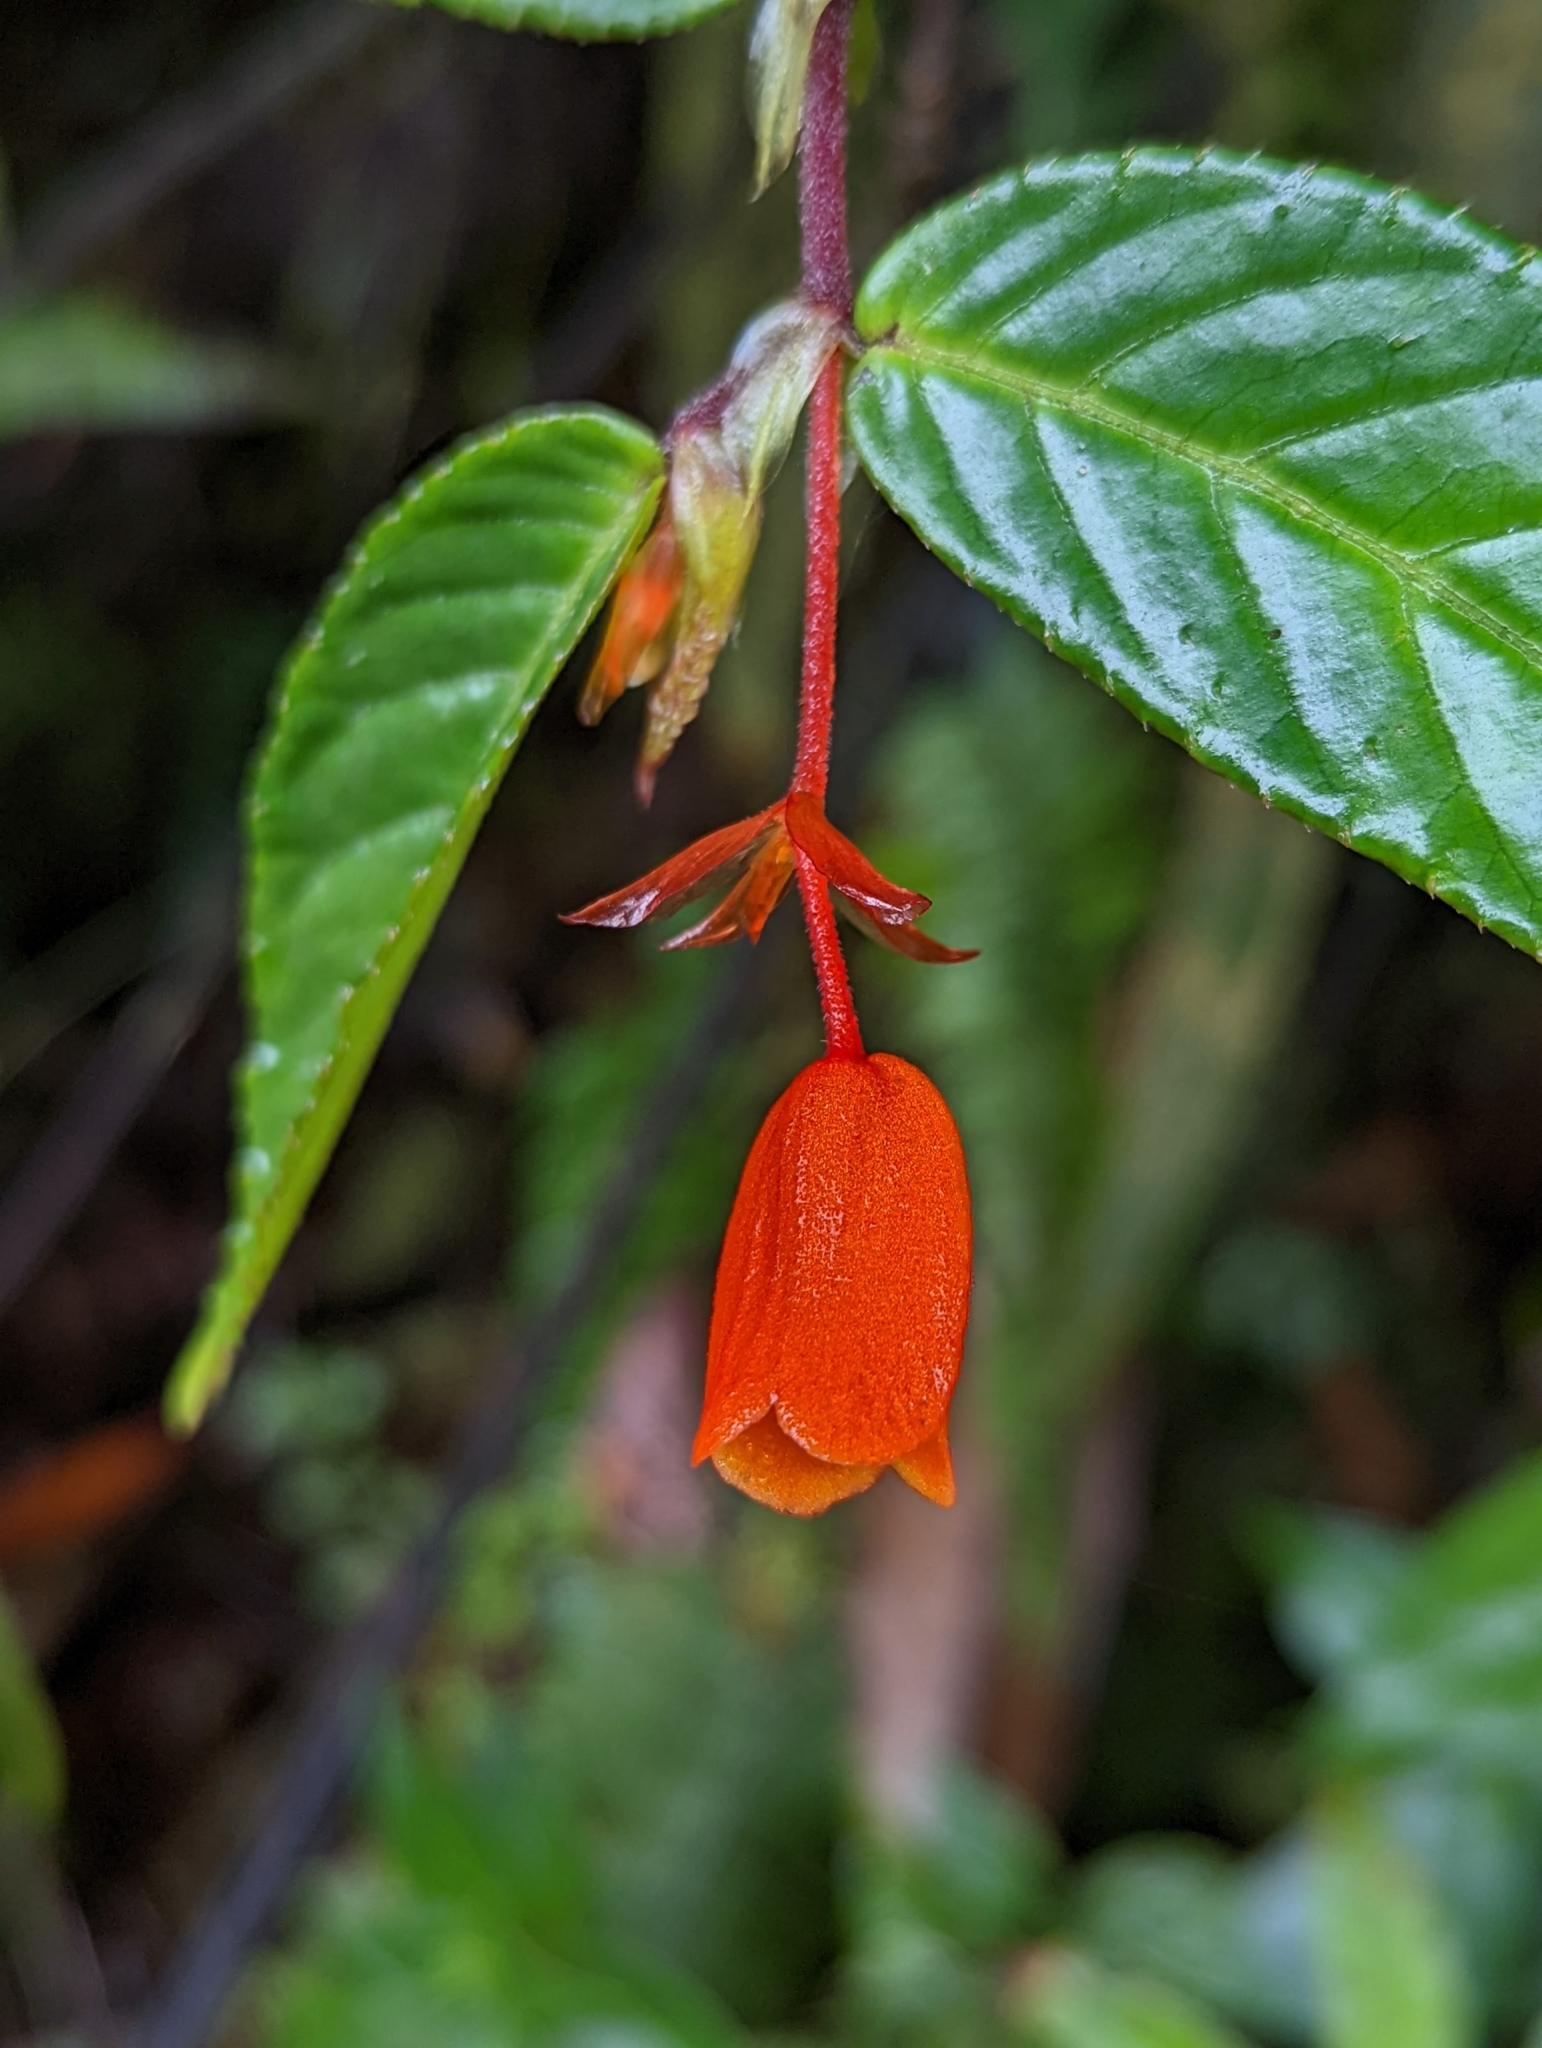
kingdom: Plantae
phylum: Tracheophyta
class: Magnoliopsida
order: Cucurbitales
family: Begoniaceae
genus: Begonia
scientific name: Begonia silverstonei
